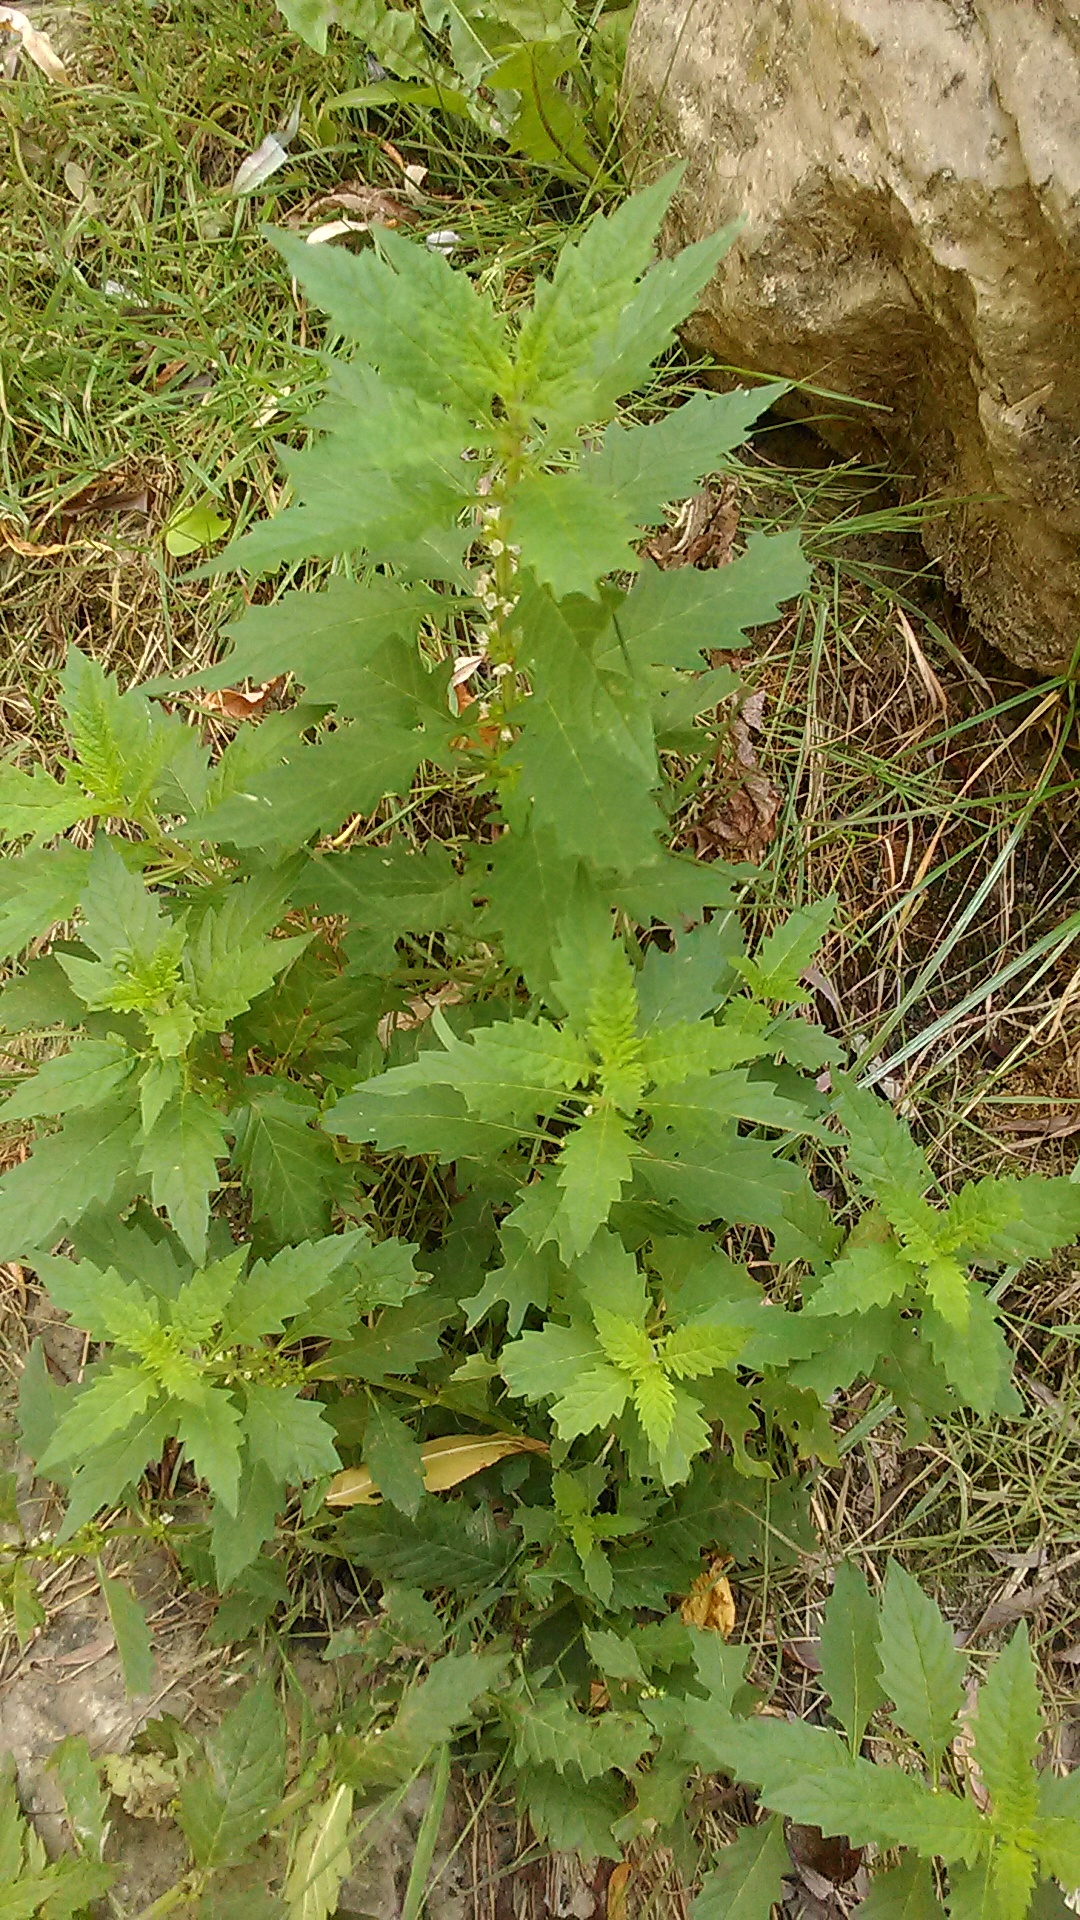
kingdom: Plantae
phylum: Tracheophyta
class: Magnoliopsida
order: Lamiales
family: Lamiaceae
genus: Lycopus
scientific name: Lycopus europaeus
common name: European bugleweed
